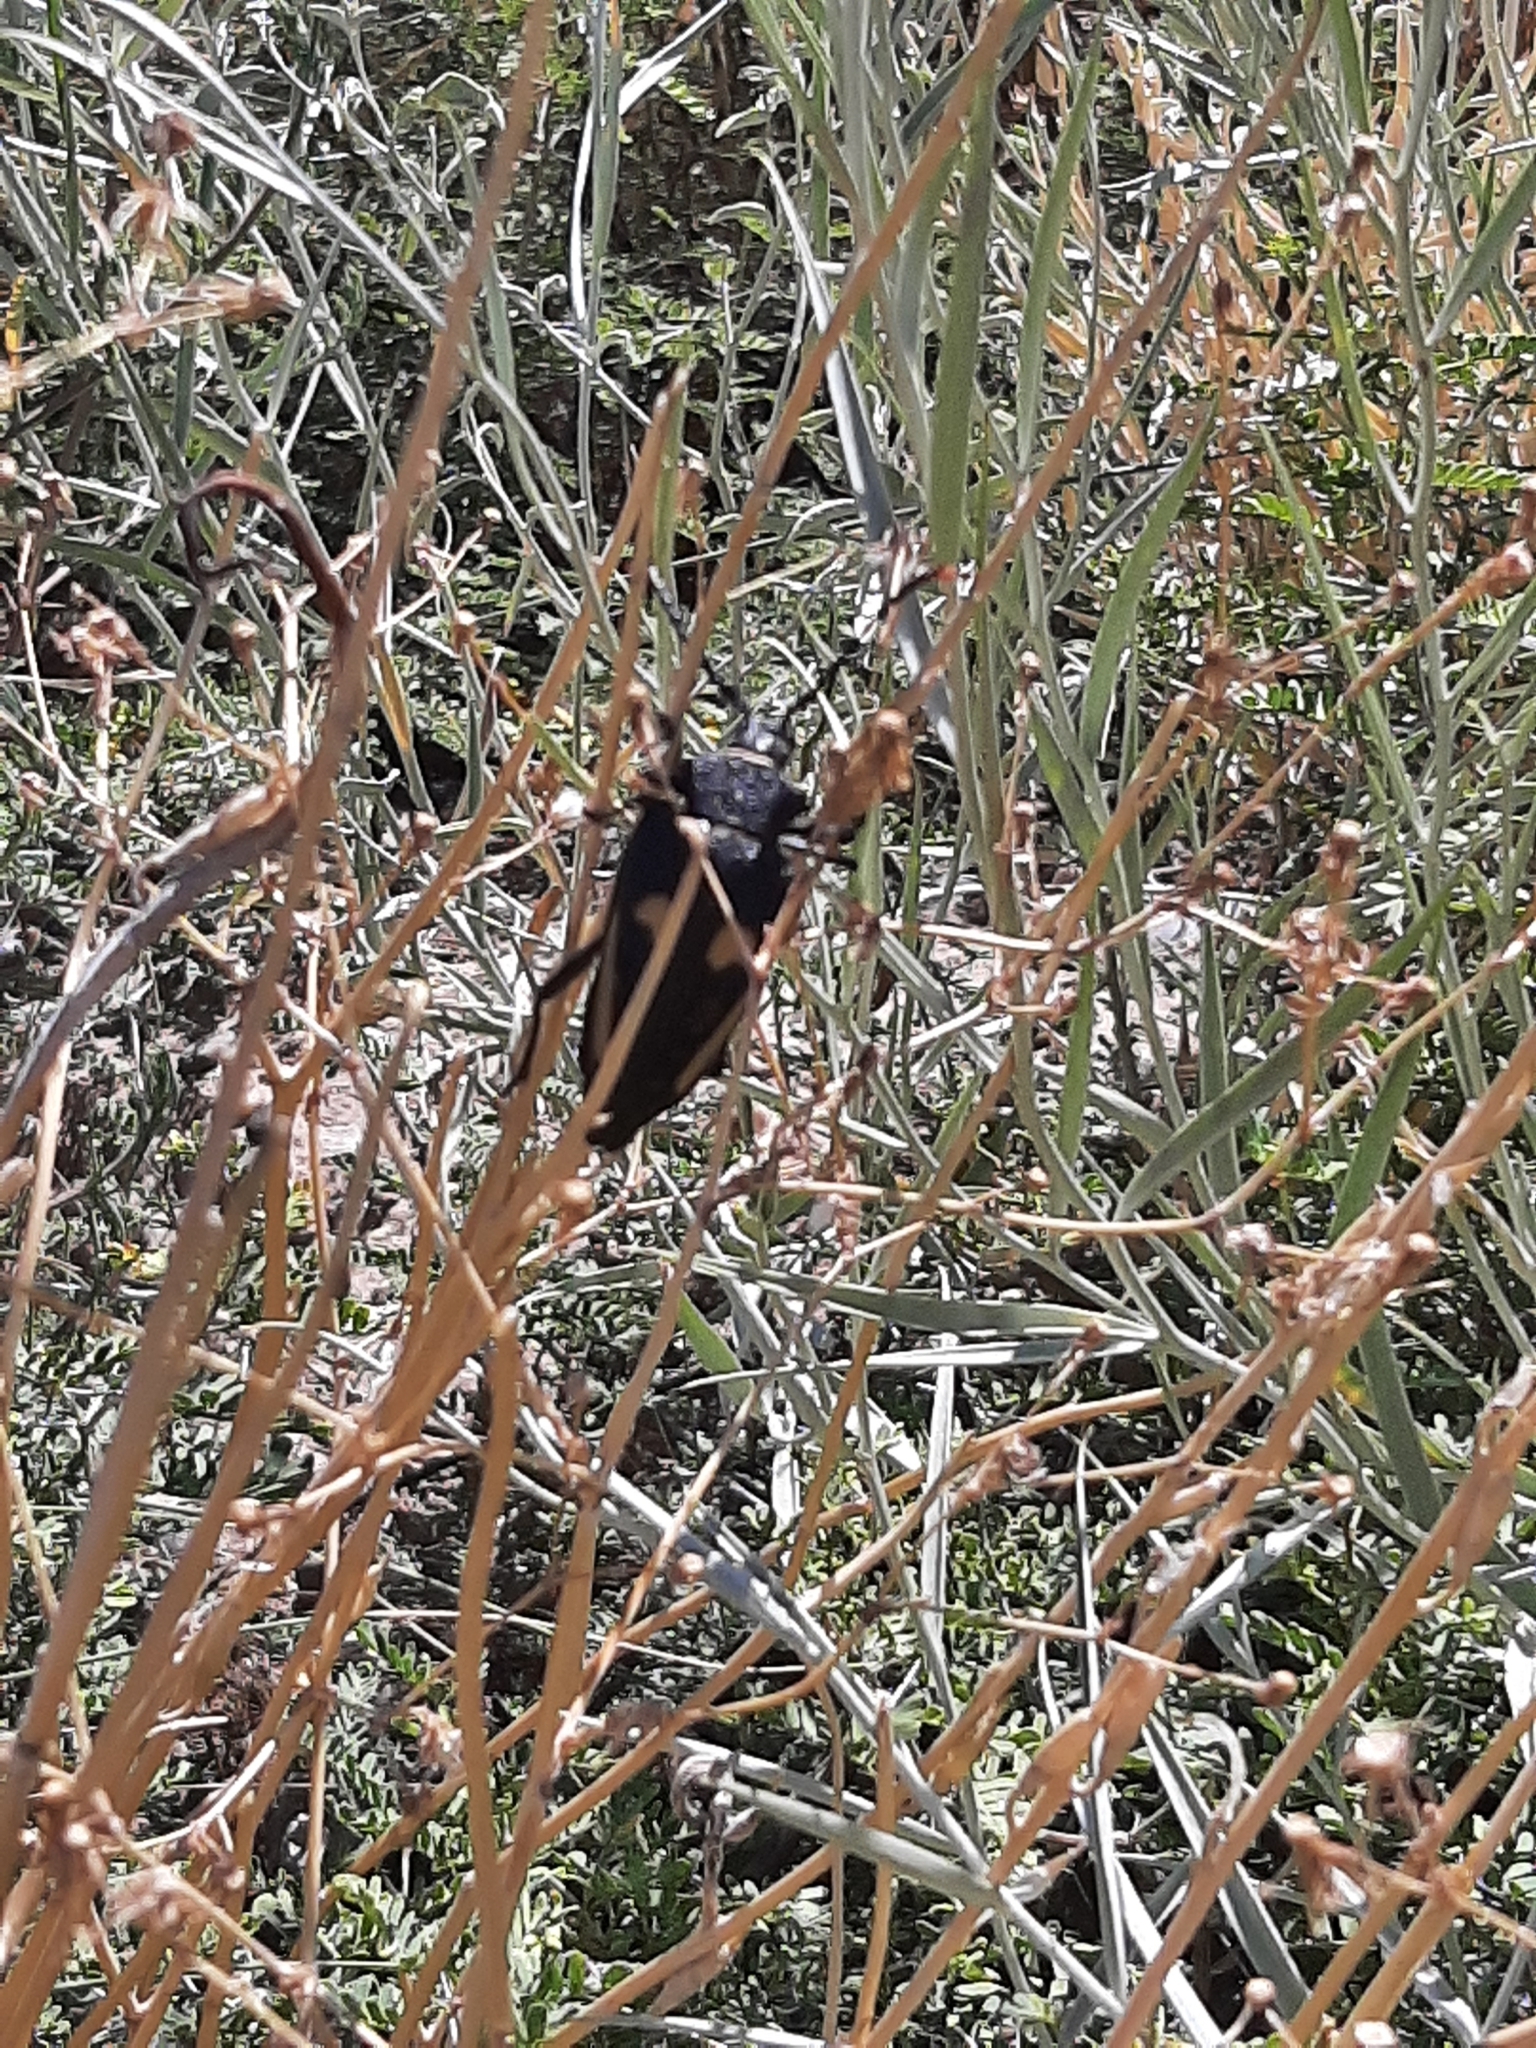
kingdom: Animalia
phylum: Arthropoda
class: Insecta
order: Coleoptera
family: Cerambycidae
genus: Calocomus
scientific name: Calocomus desmarestii
